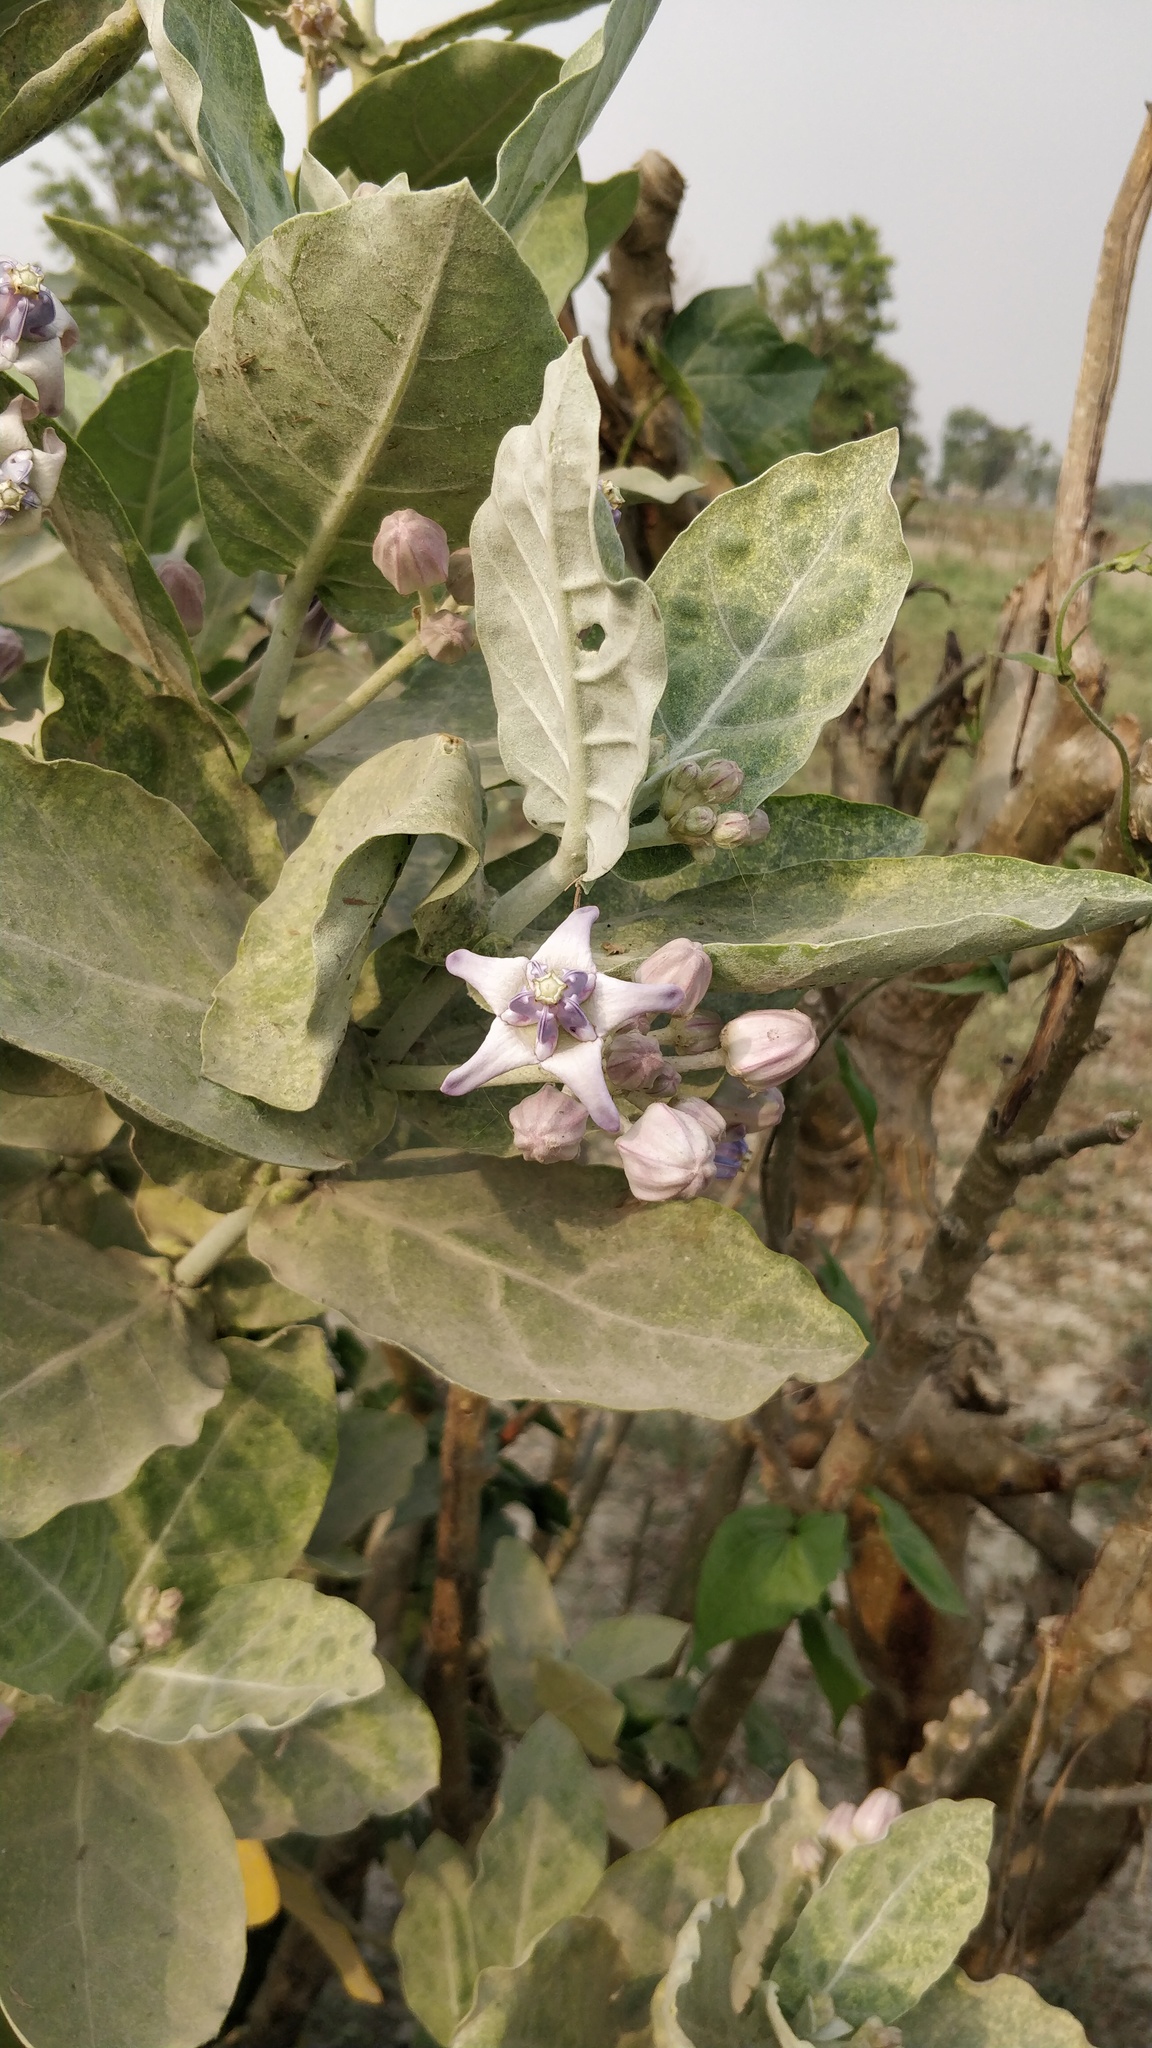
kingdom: Plantae
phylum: Tracheophyta
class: Magnoliopsida
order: Gentianales
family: Apocynaceae
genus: Calotropis
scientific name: Calotropis gigantea
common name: Crown flower
